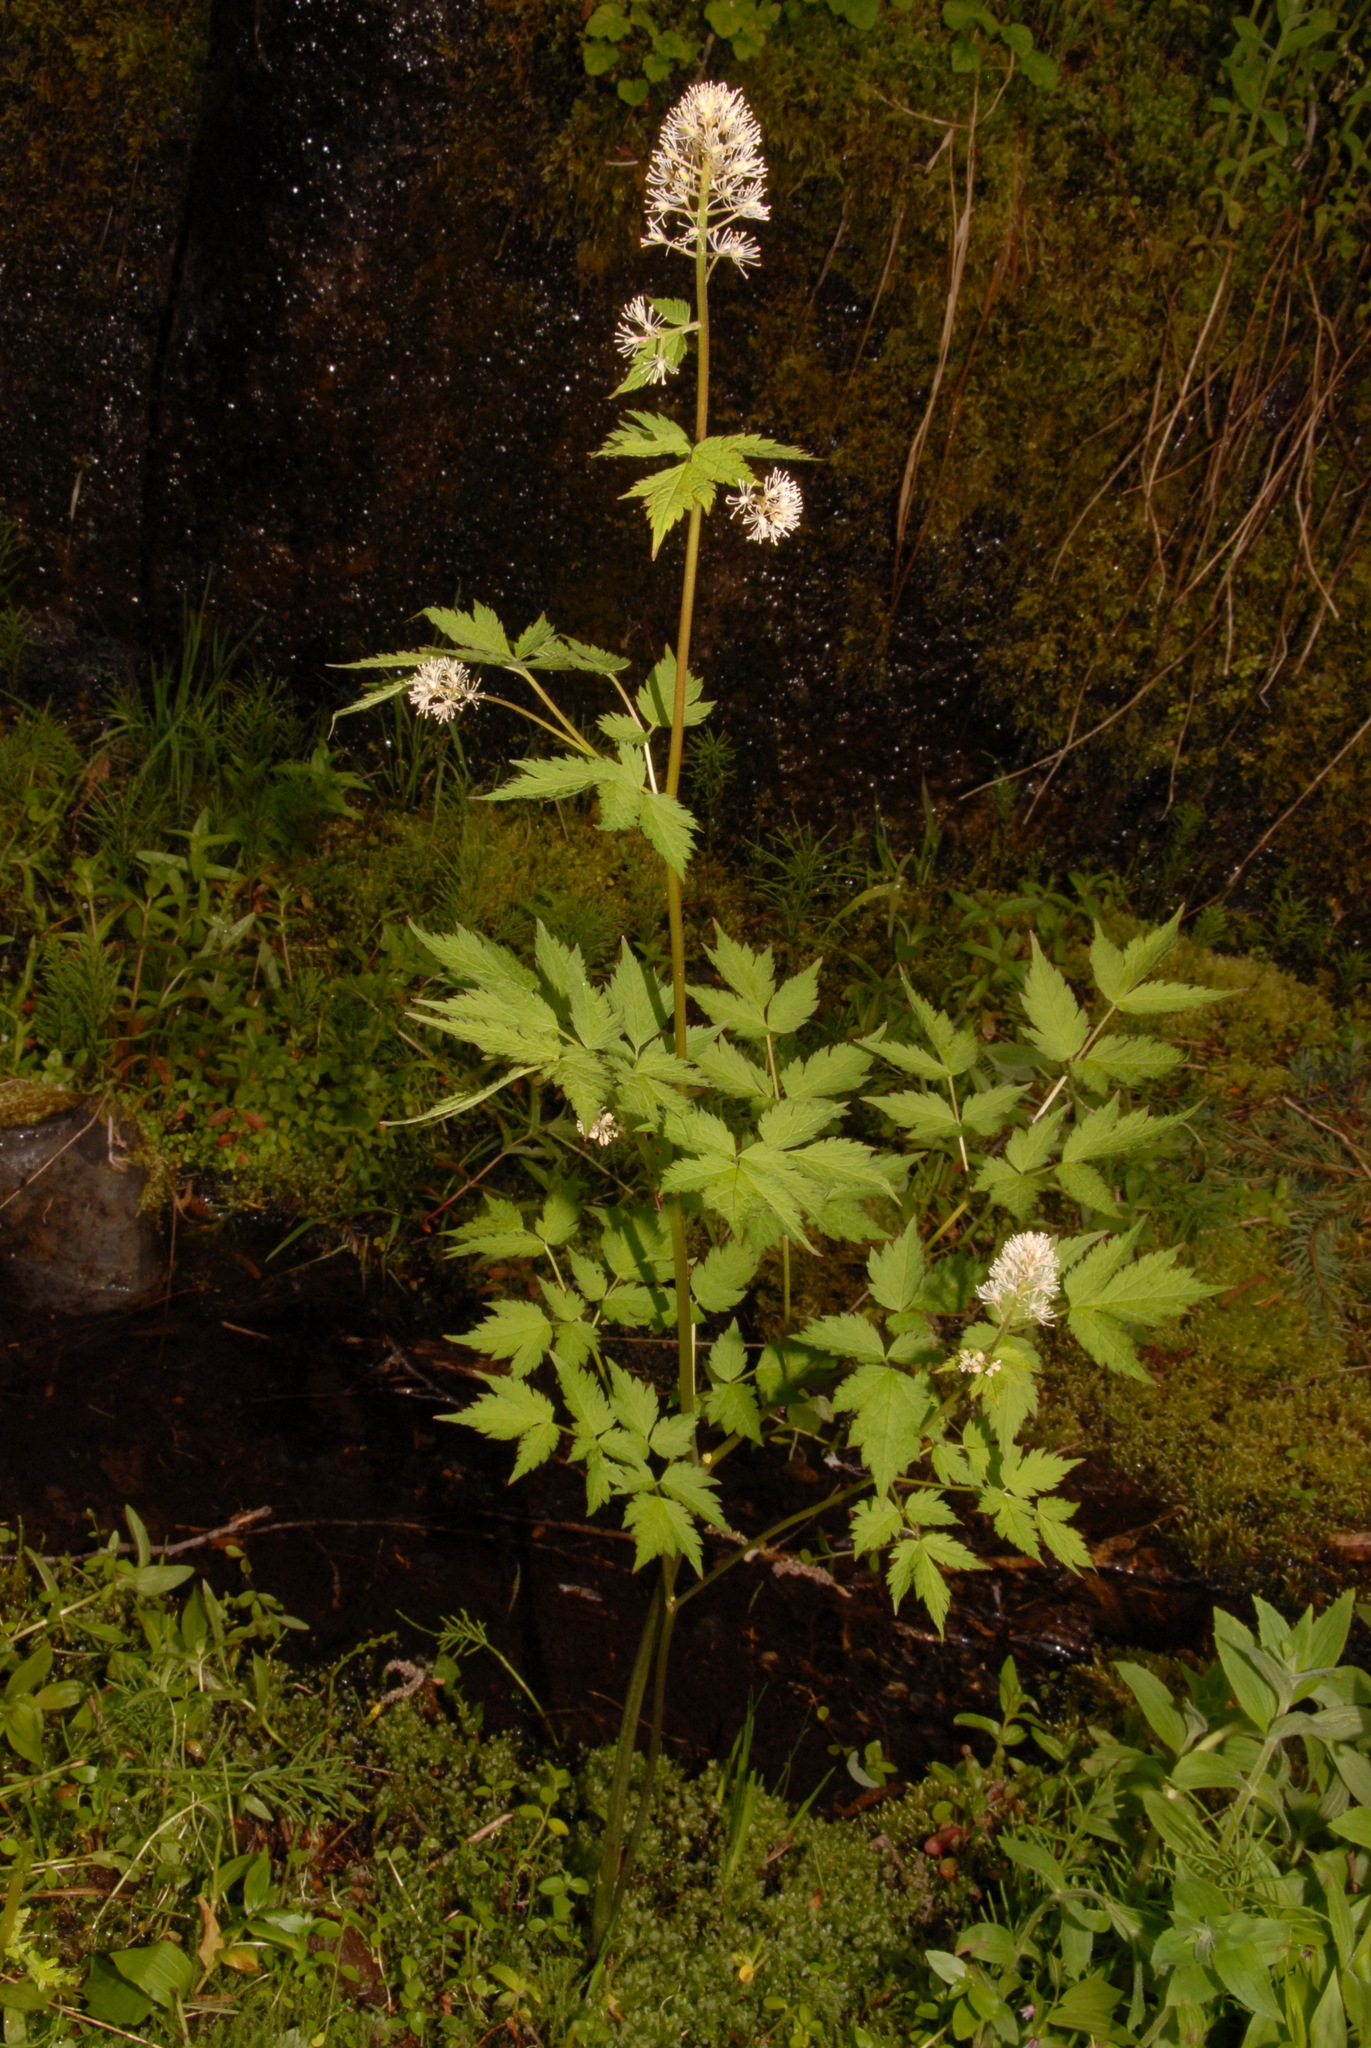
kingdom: Plantae
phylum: Tracheophyta
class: Magnoliopsida
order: Ranunculales
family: Ranunculaceae
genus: Actaea
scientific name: Actaea rubra
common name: Red baneberry
